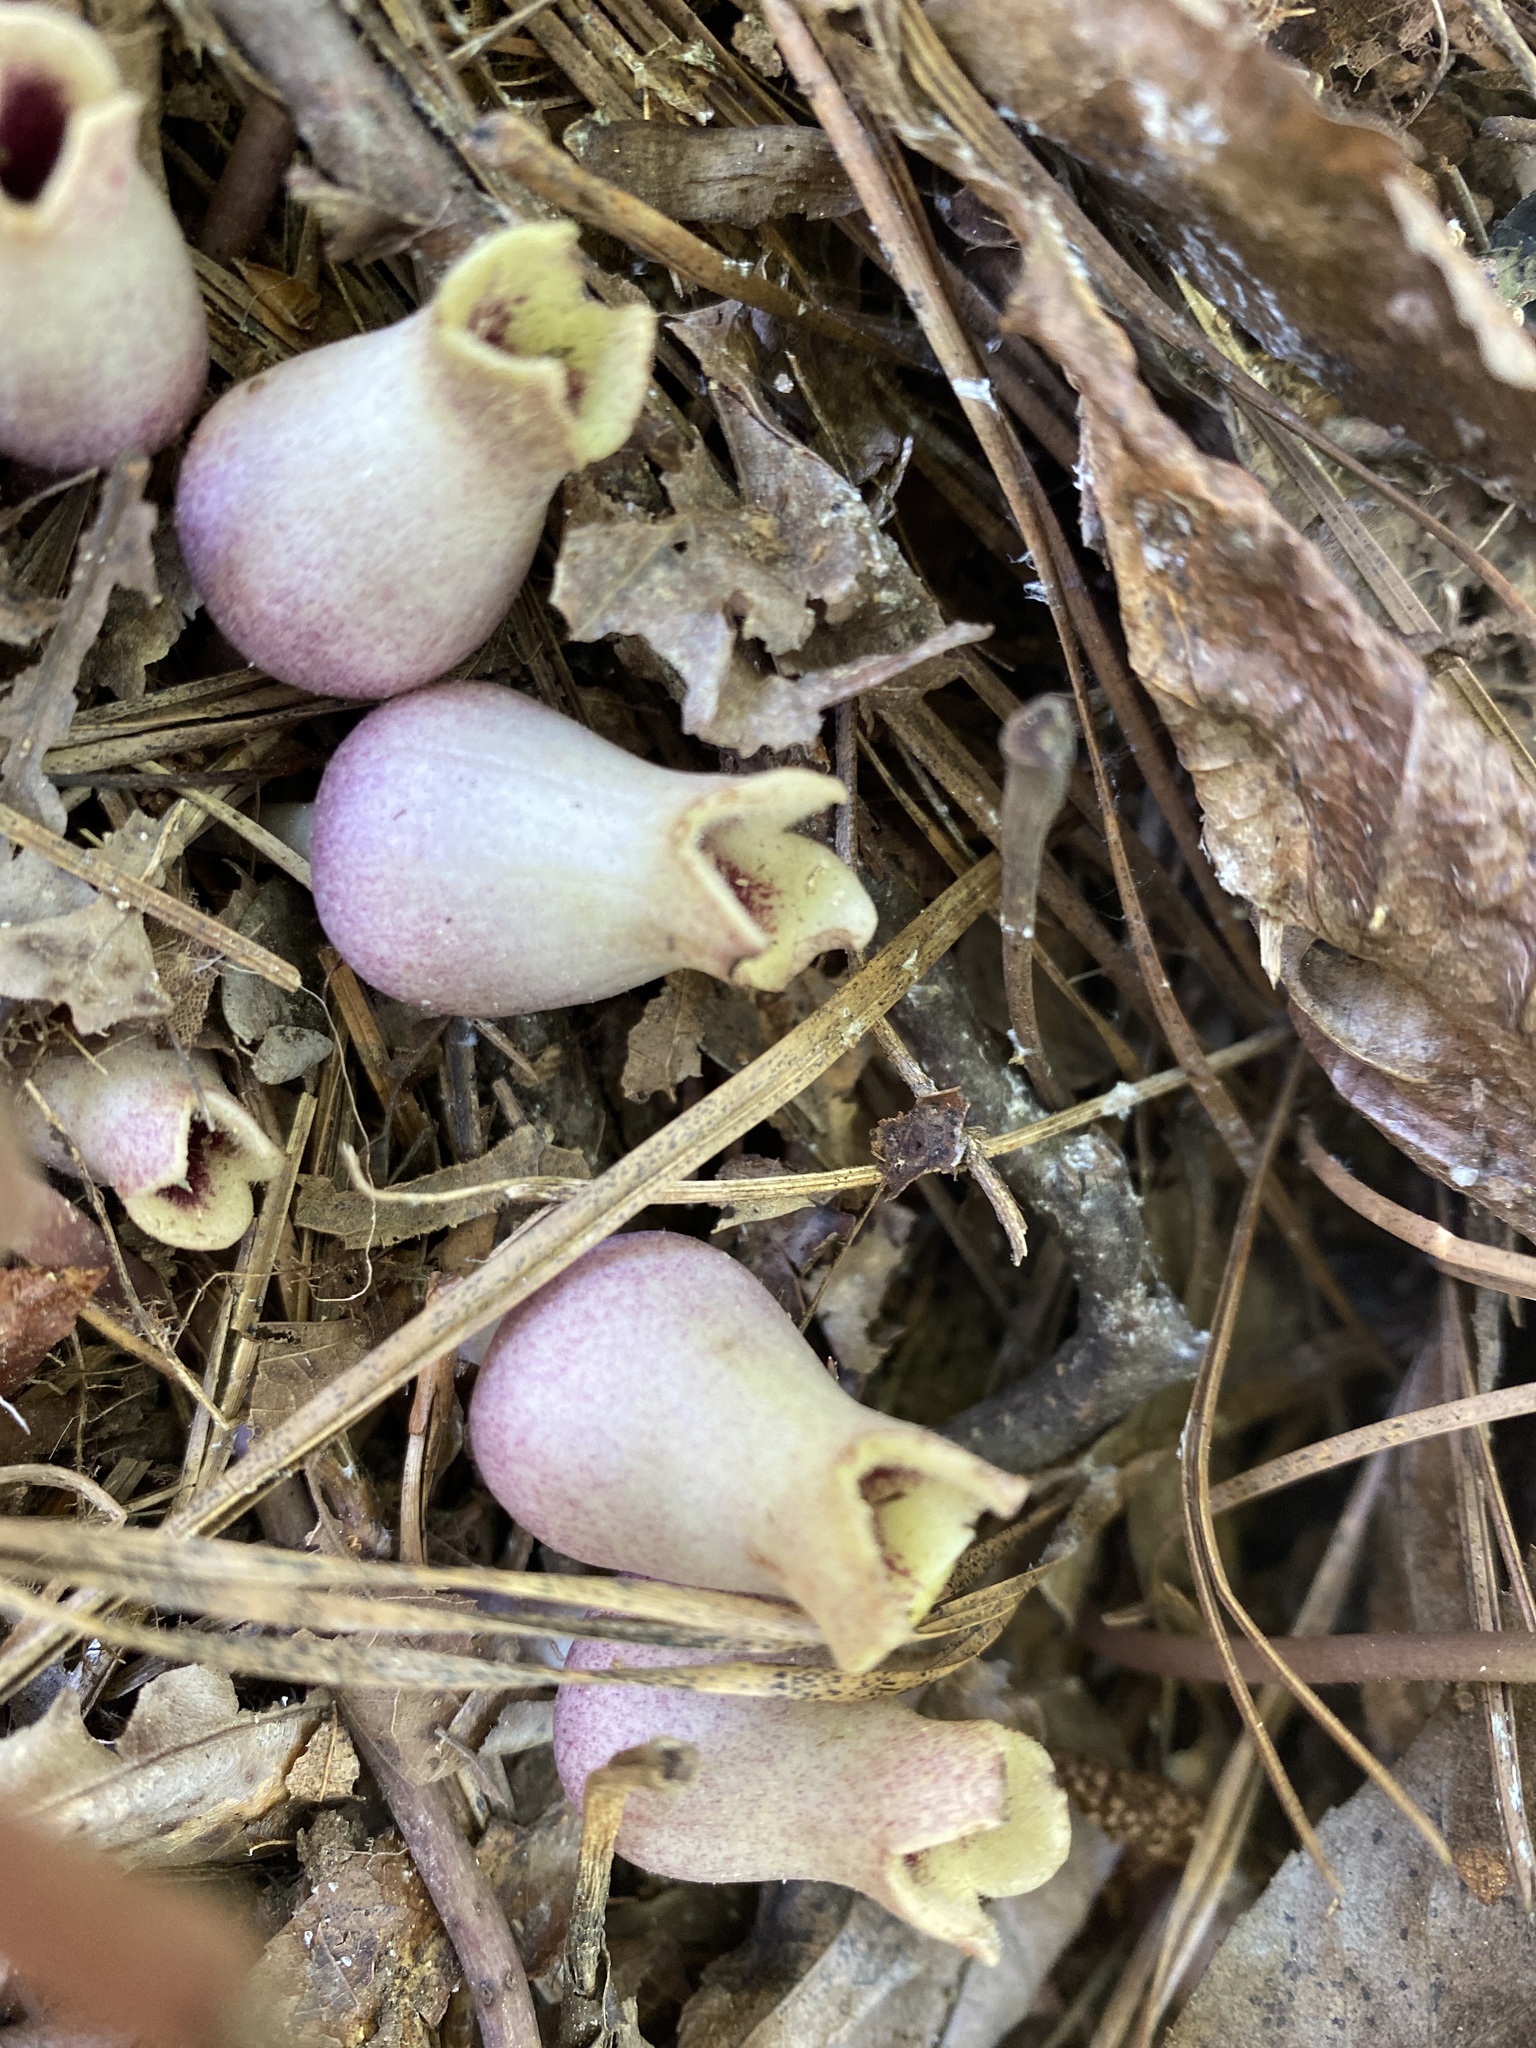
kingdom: Plantae
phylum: Tracheophyta
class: Magnoliopsida
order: Piperales
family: Aristolochiaceae
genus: Hexastylis
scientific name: Hexastylis arifolia
